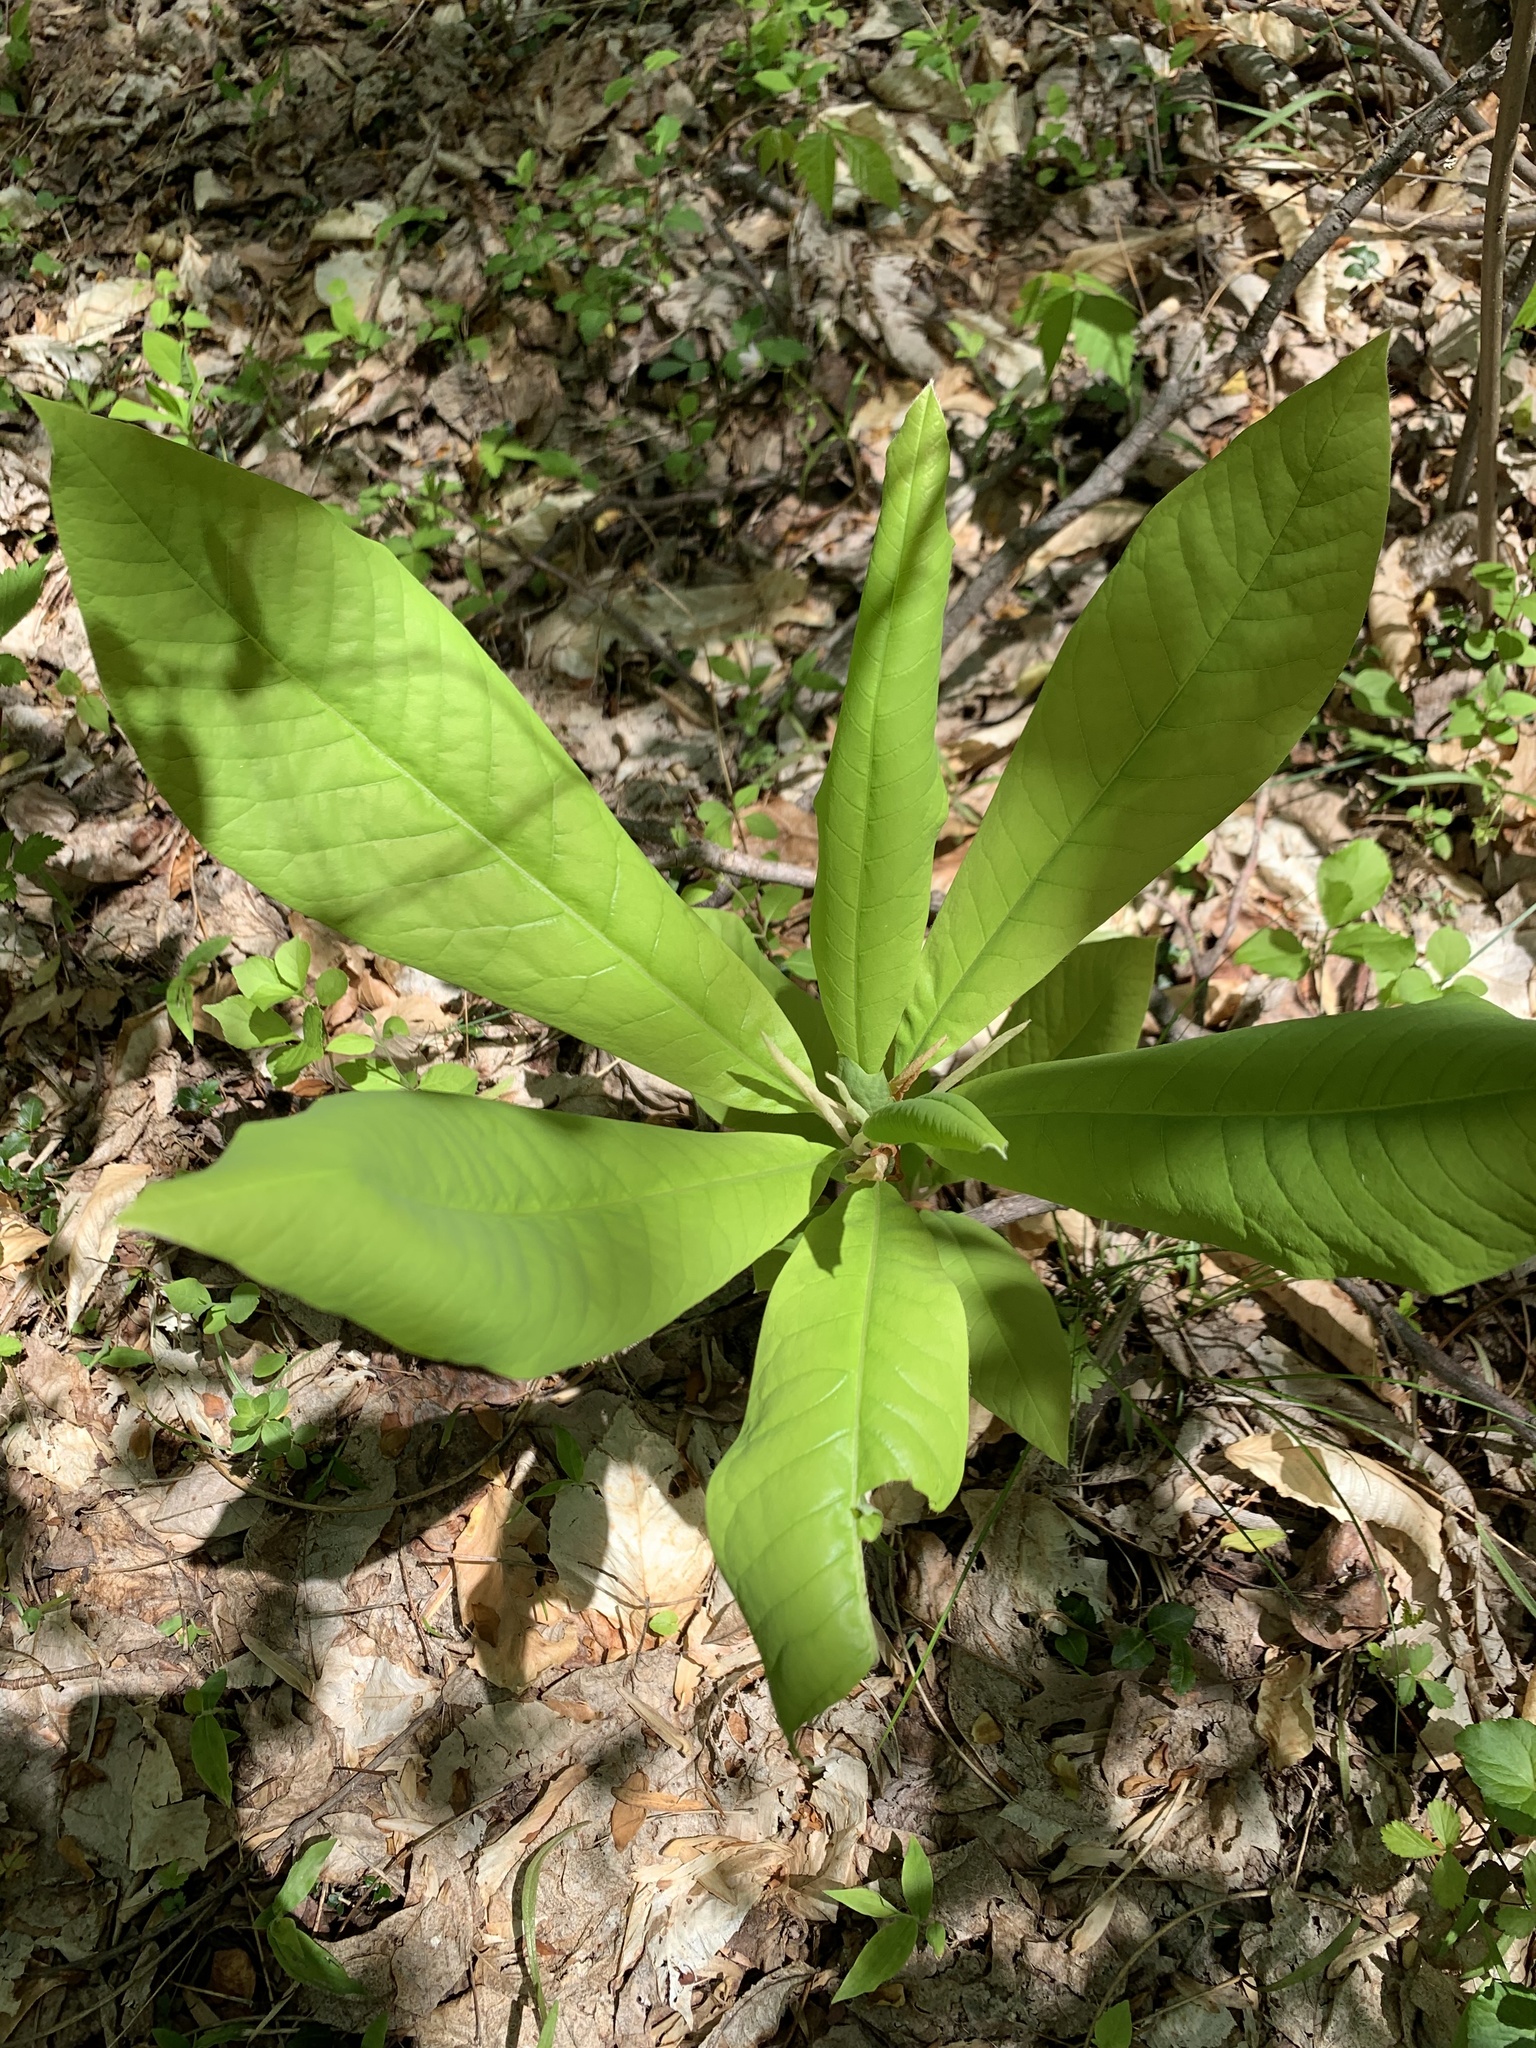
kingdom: Plantae
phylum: Tracheophyta
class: Magnoliopsida
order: Magnoliales
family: Magnoliaceae
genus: Magnolia
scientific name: Magnolia tripetala
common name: Umbrella magnolia
